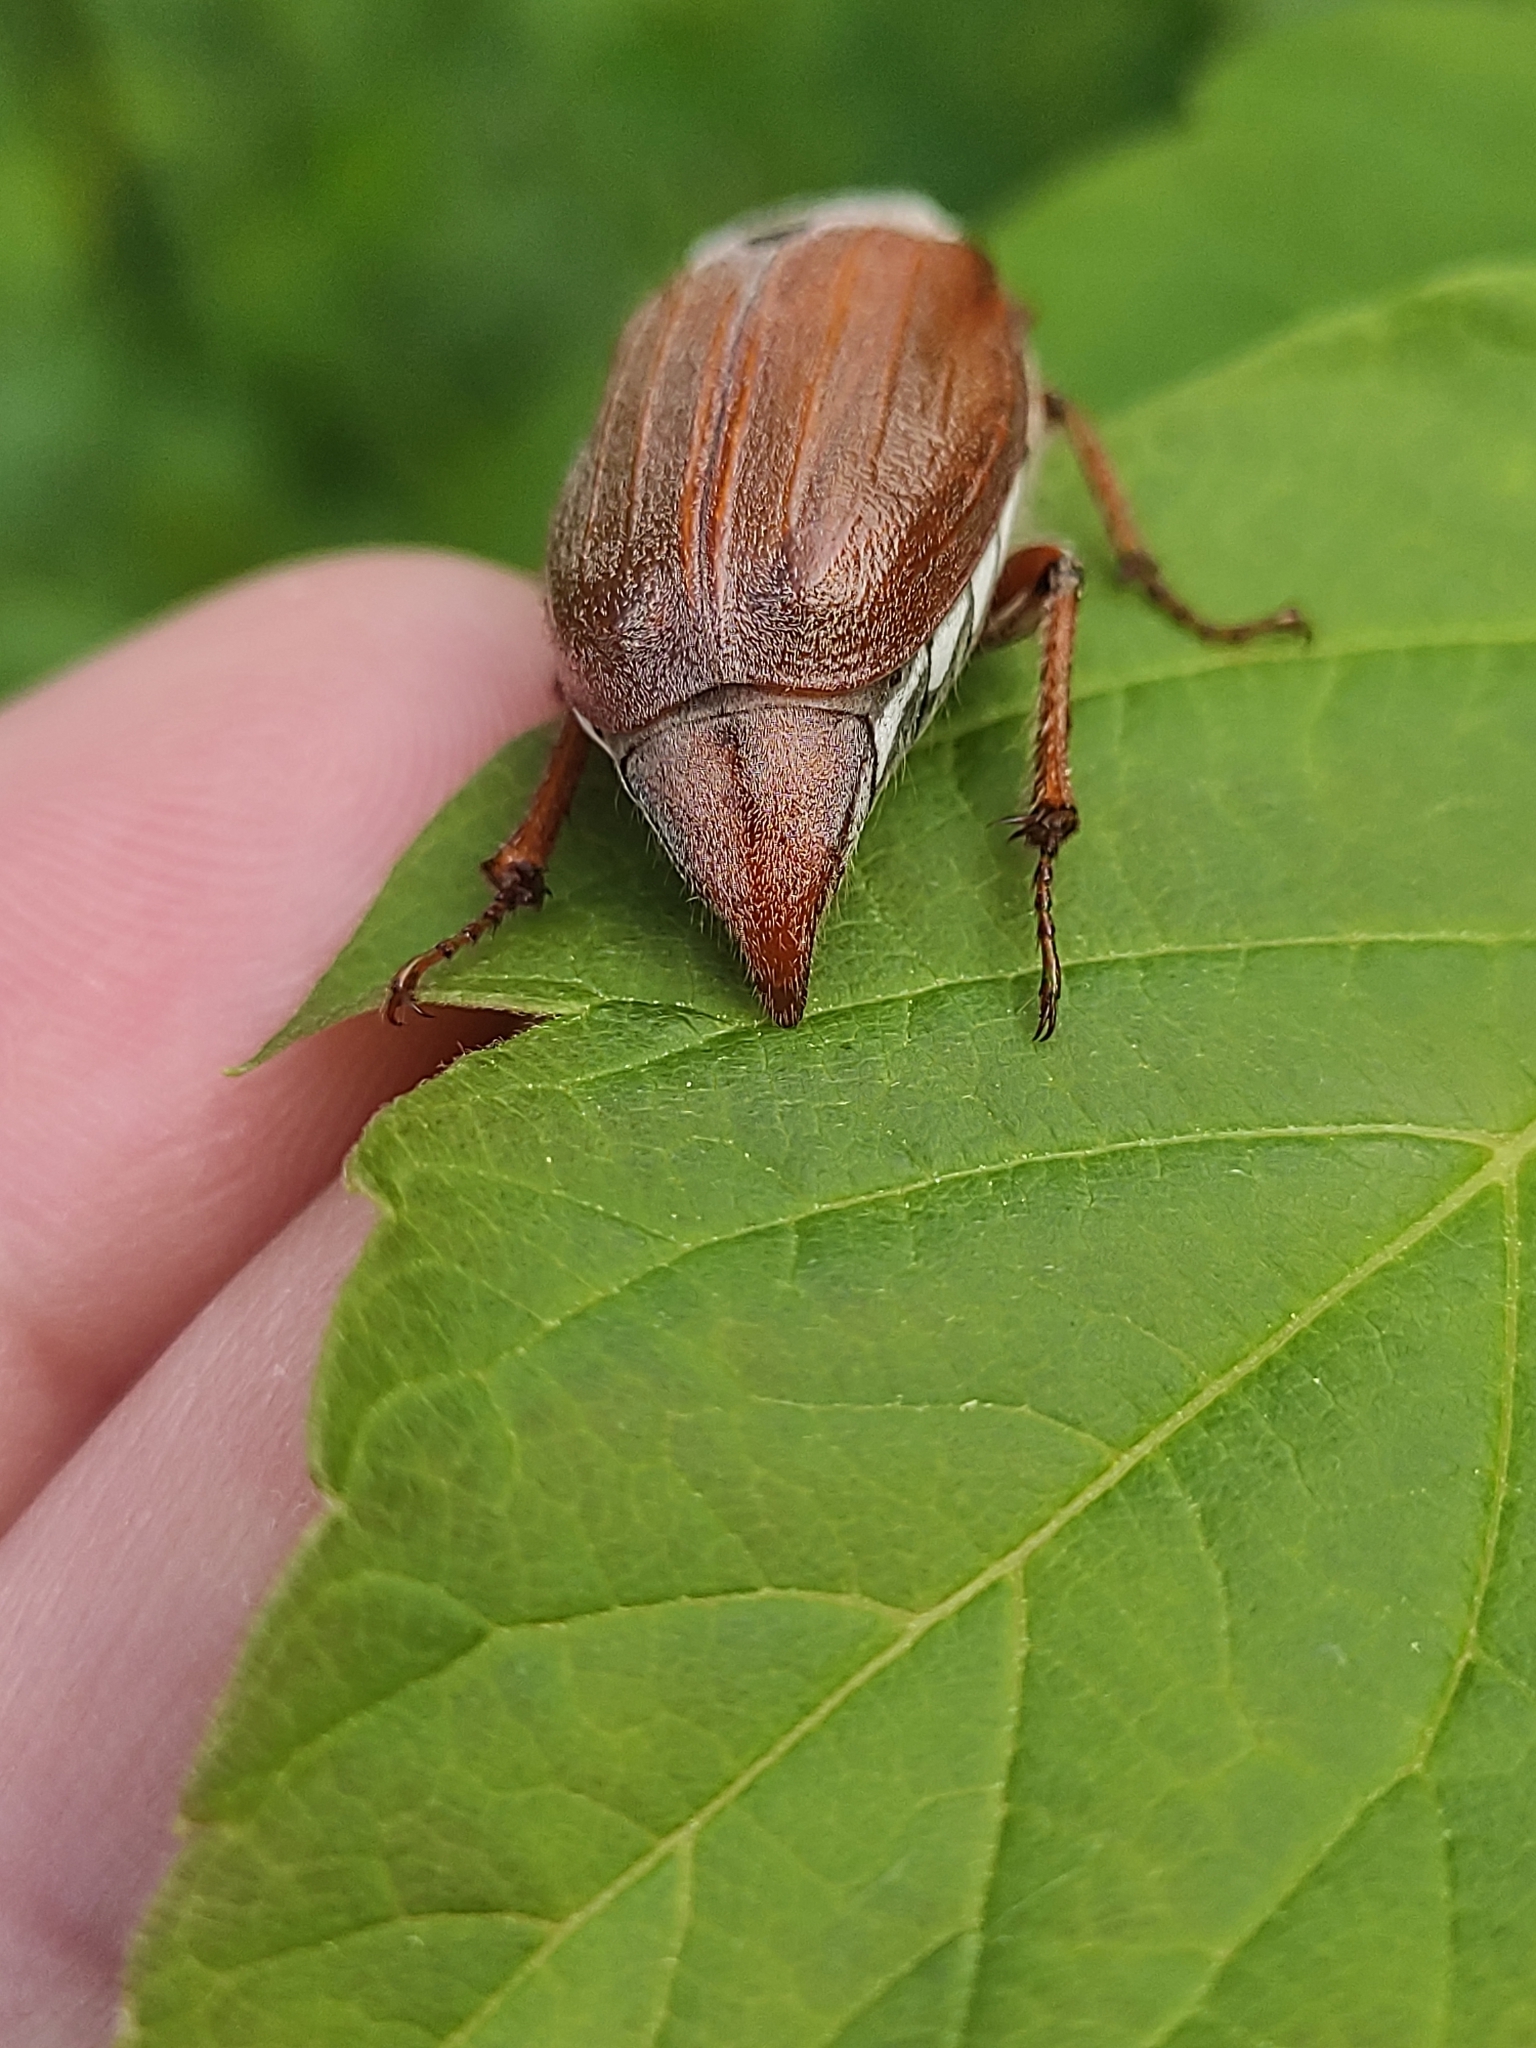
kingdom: Animalia
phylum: Arthropoda
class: Insecta
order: Coleoptera
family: Scarabaeidae
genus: Melolontha
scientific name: Melolontha hippocastani
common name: Chestnut cockchafer
